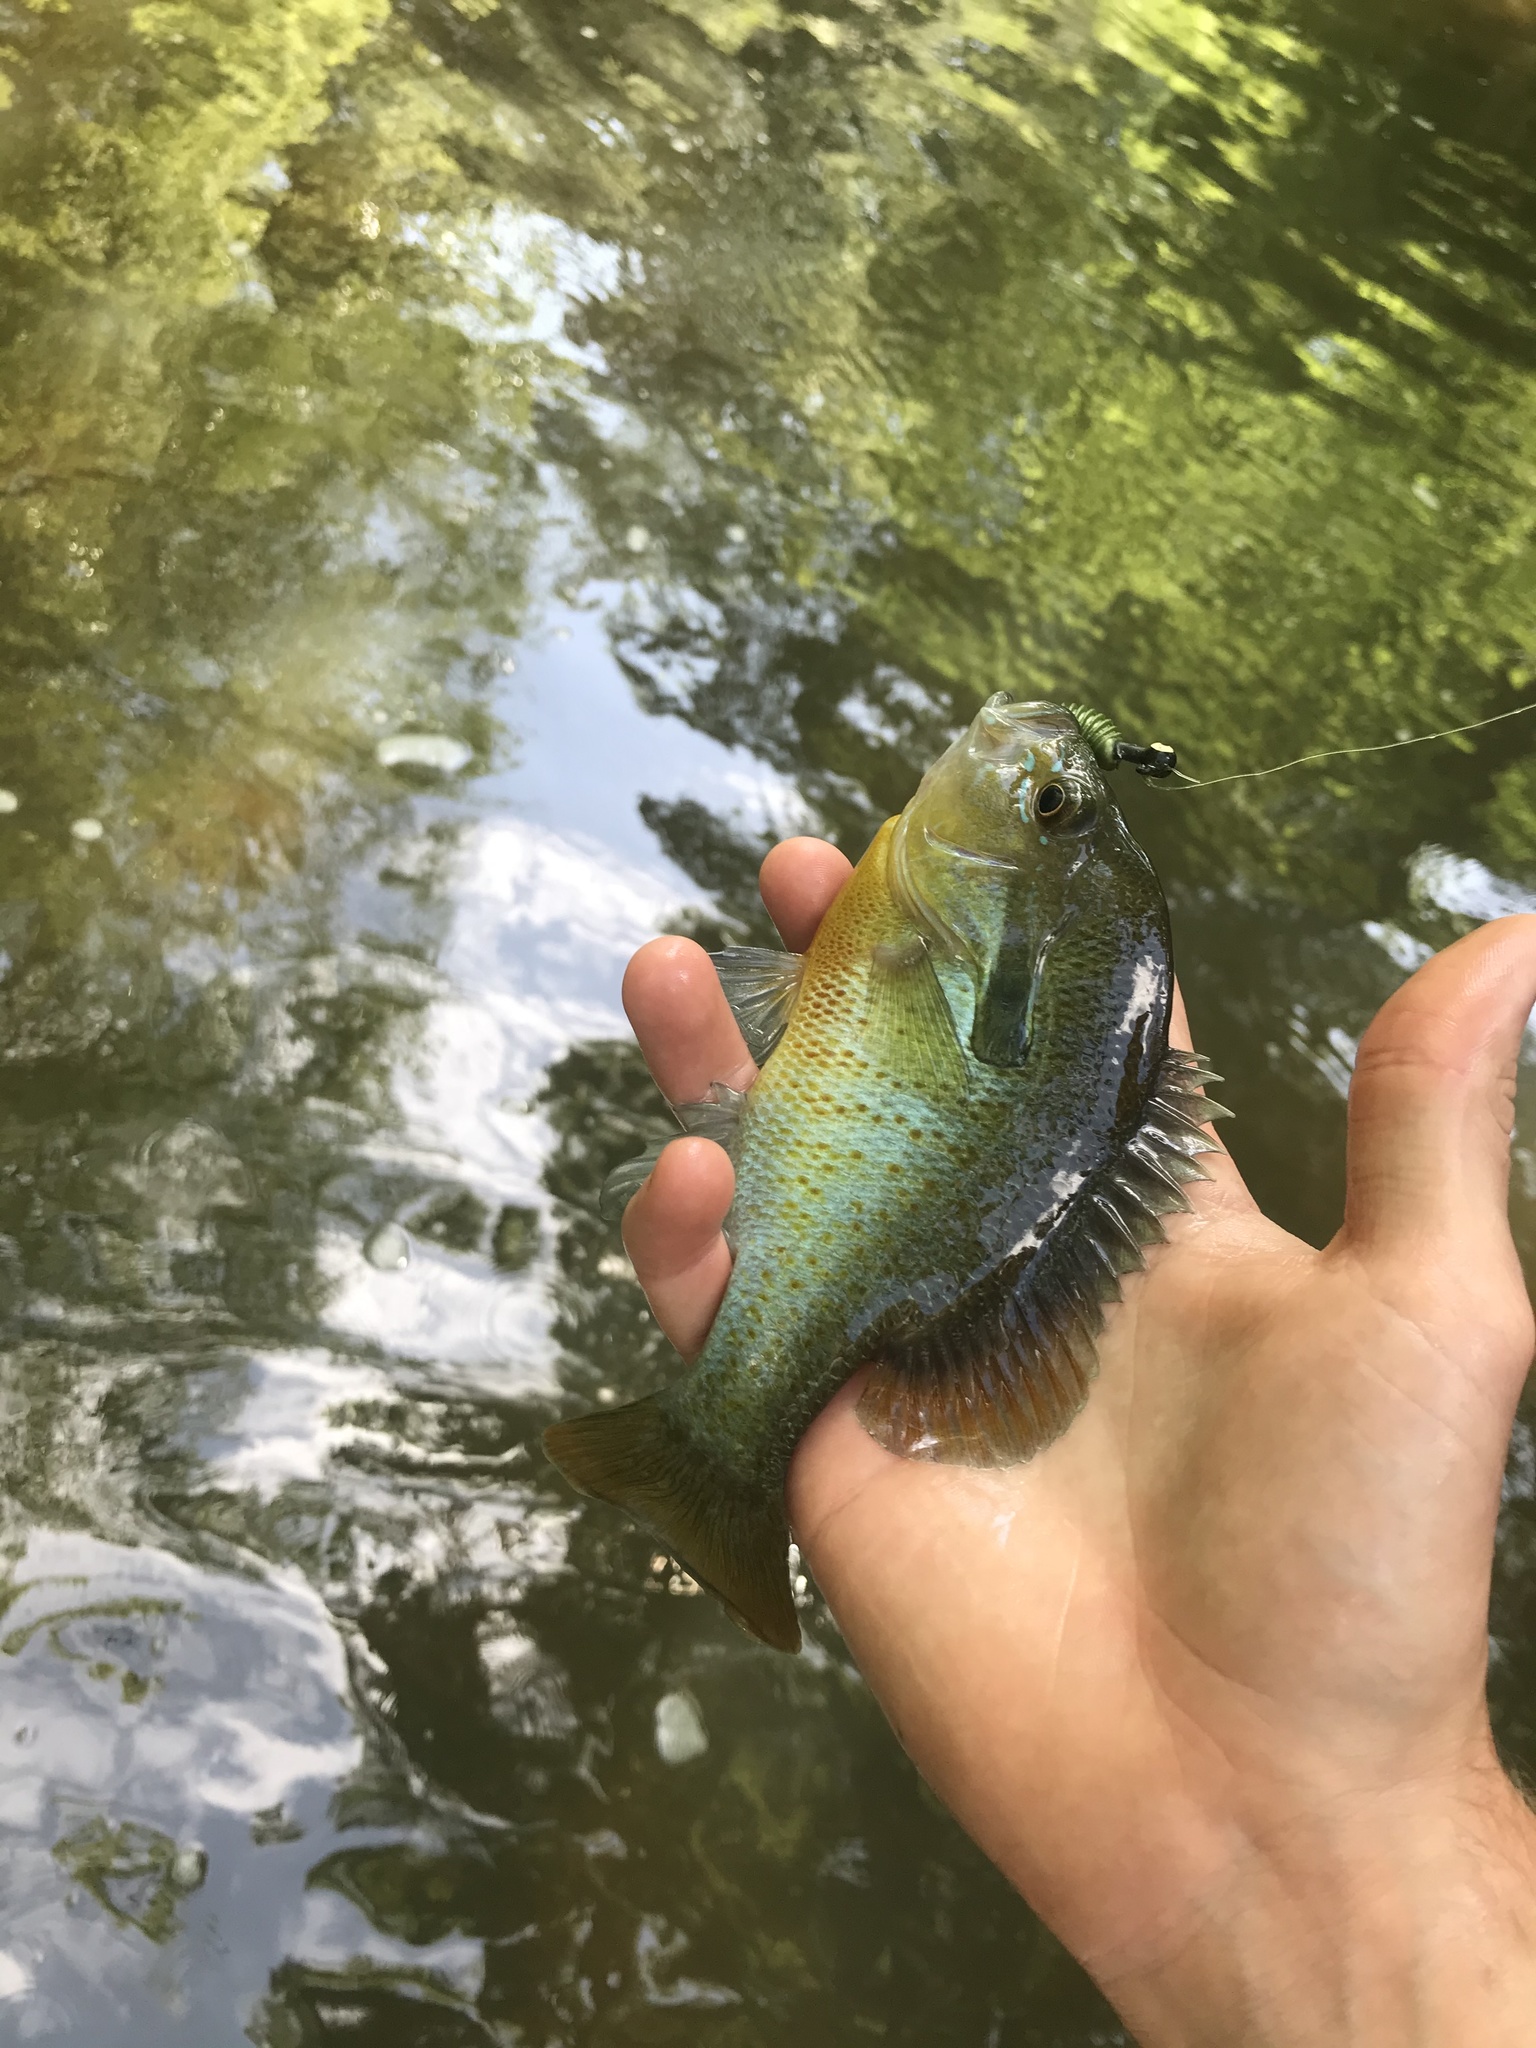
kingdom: Animalia
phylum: Chordata
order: Perciformes
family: Centrarchidae
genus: Lepomis
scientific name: Lepomis auritus
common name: Redbreast sunfish
